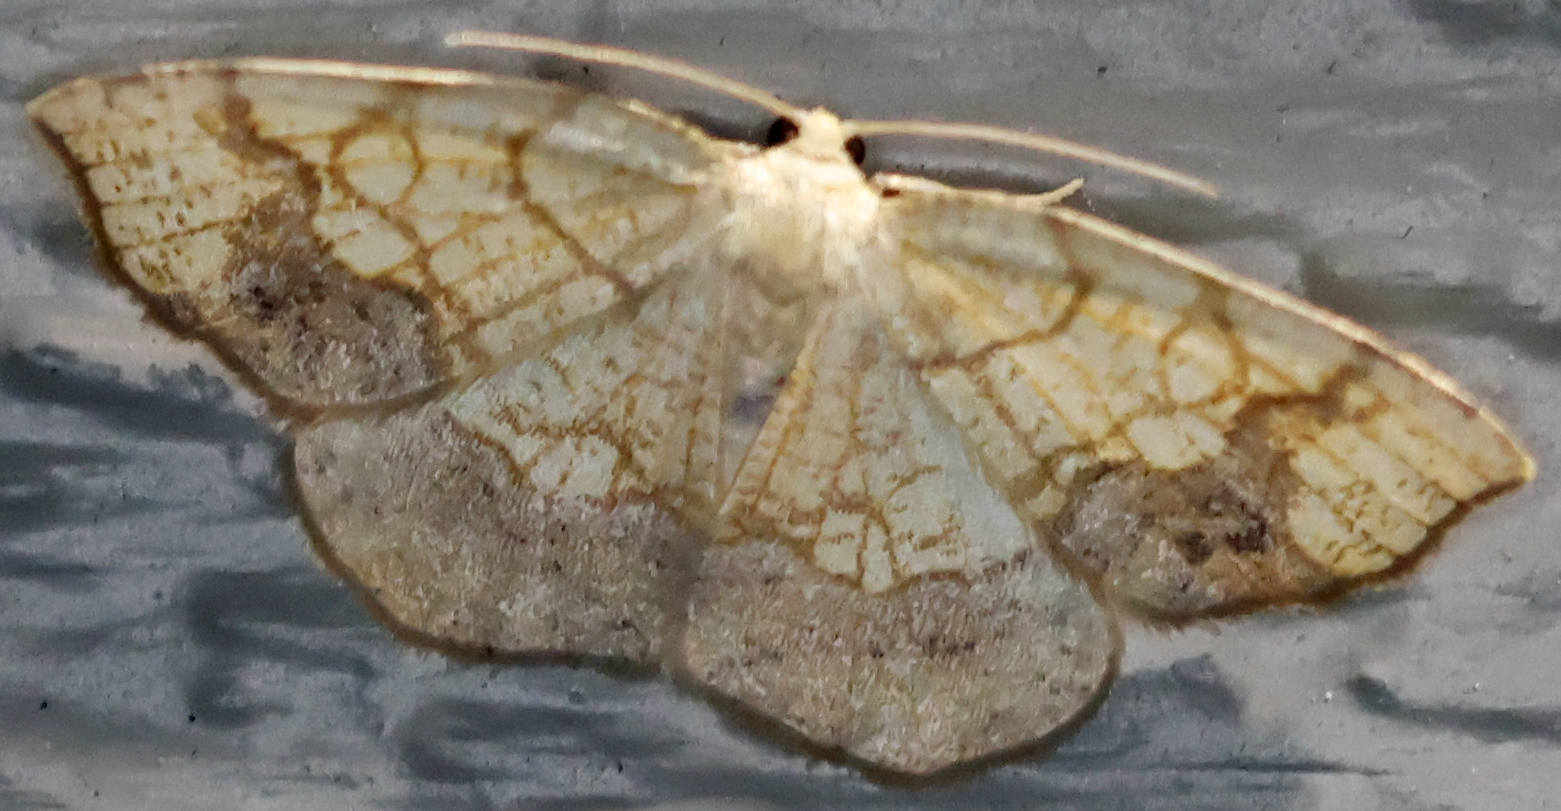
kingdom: Animalia
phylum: Arthropoda
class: Insecta
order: Lepidoptera
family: Geometridae
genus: Nematocampa
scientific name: Nematocampa resistaria
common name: Horned spanworm moth
